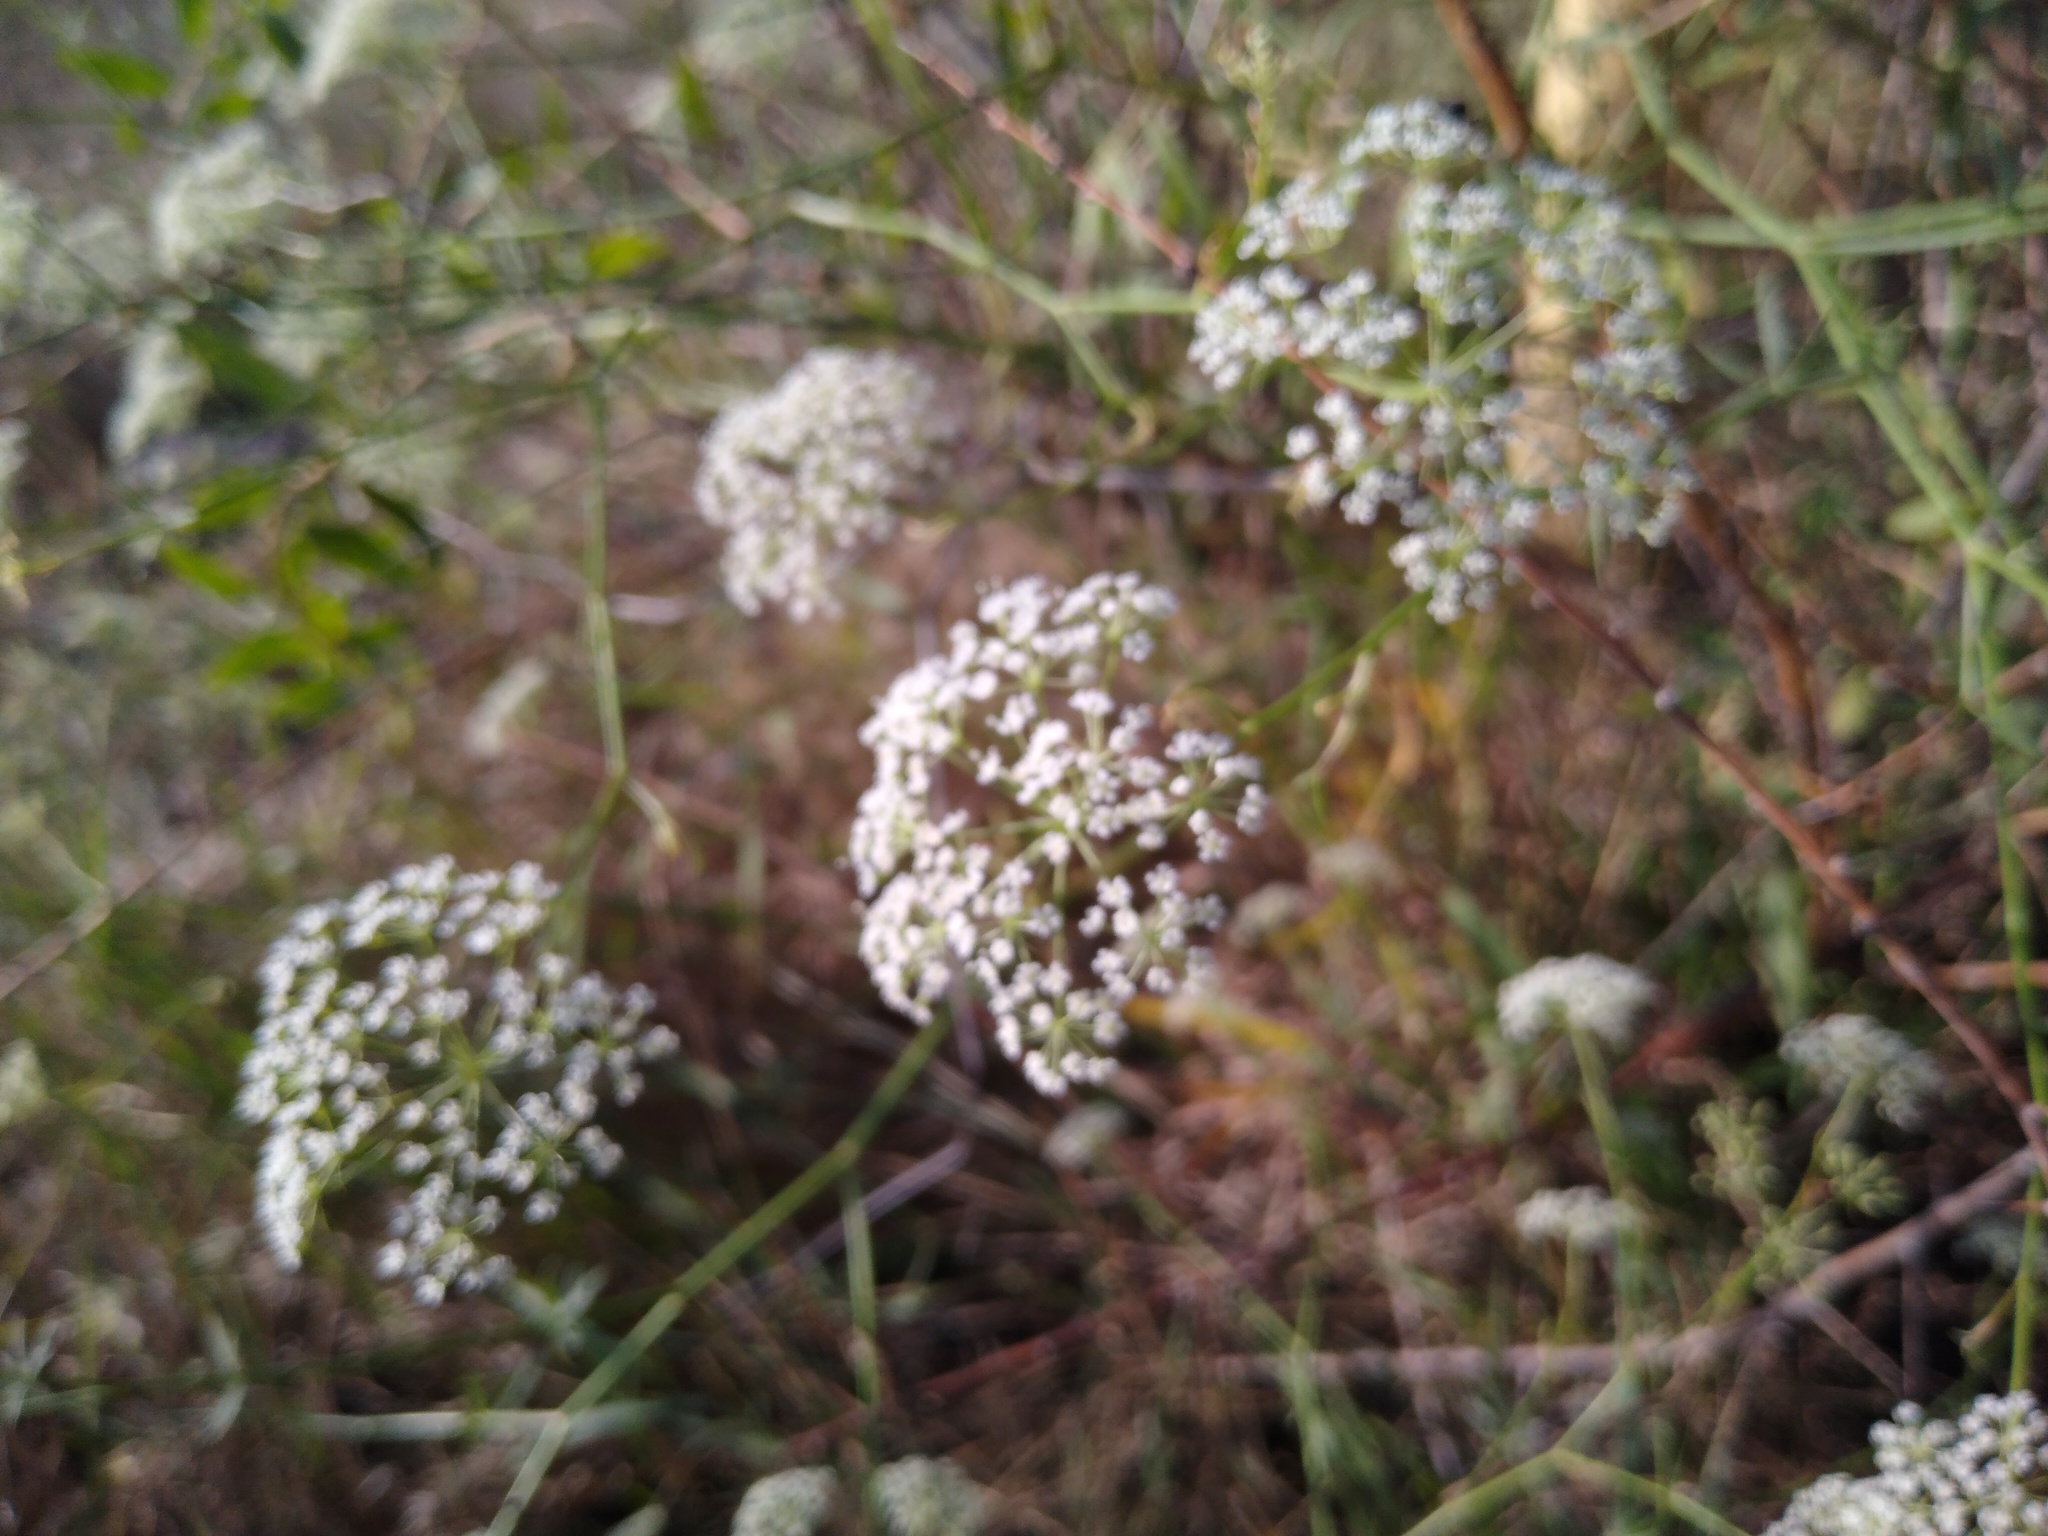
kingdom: Plantae
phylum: Tracheophyta
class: Magnoliopsida
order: Apiales
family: Apiaceae
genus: Falcaria
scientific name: Falcaria vulgaris
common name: Longleaf
